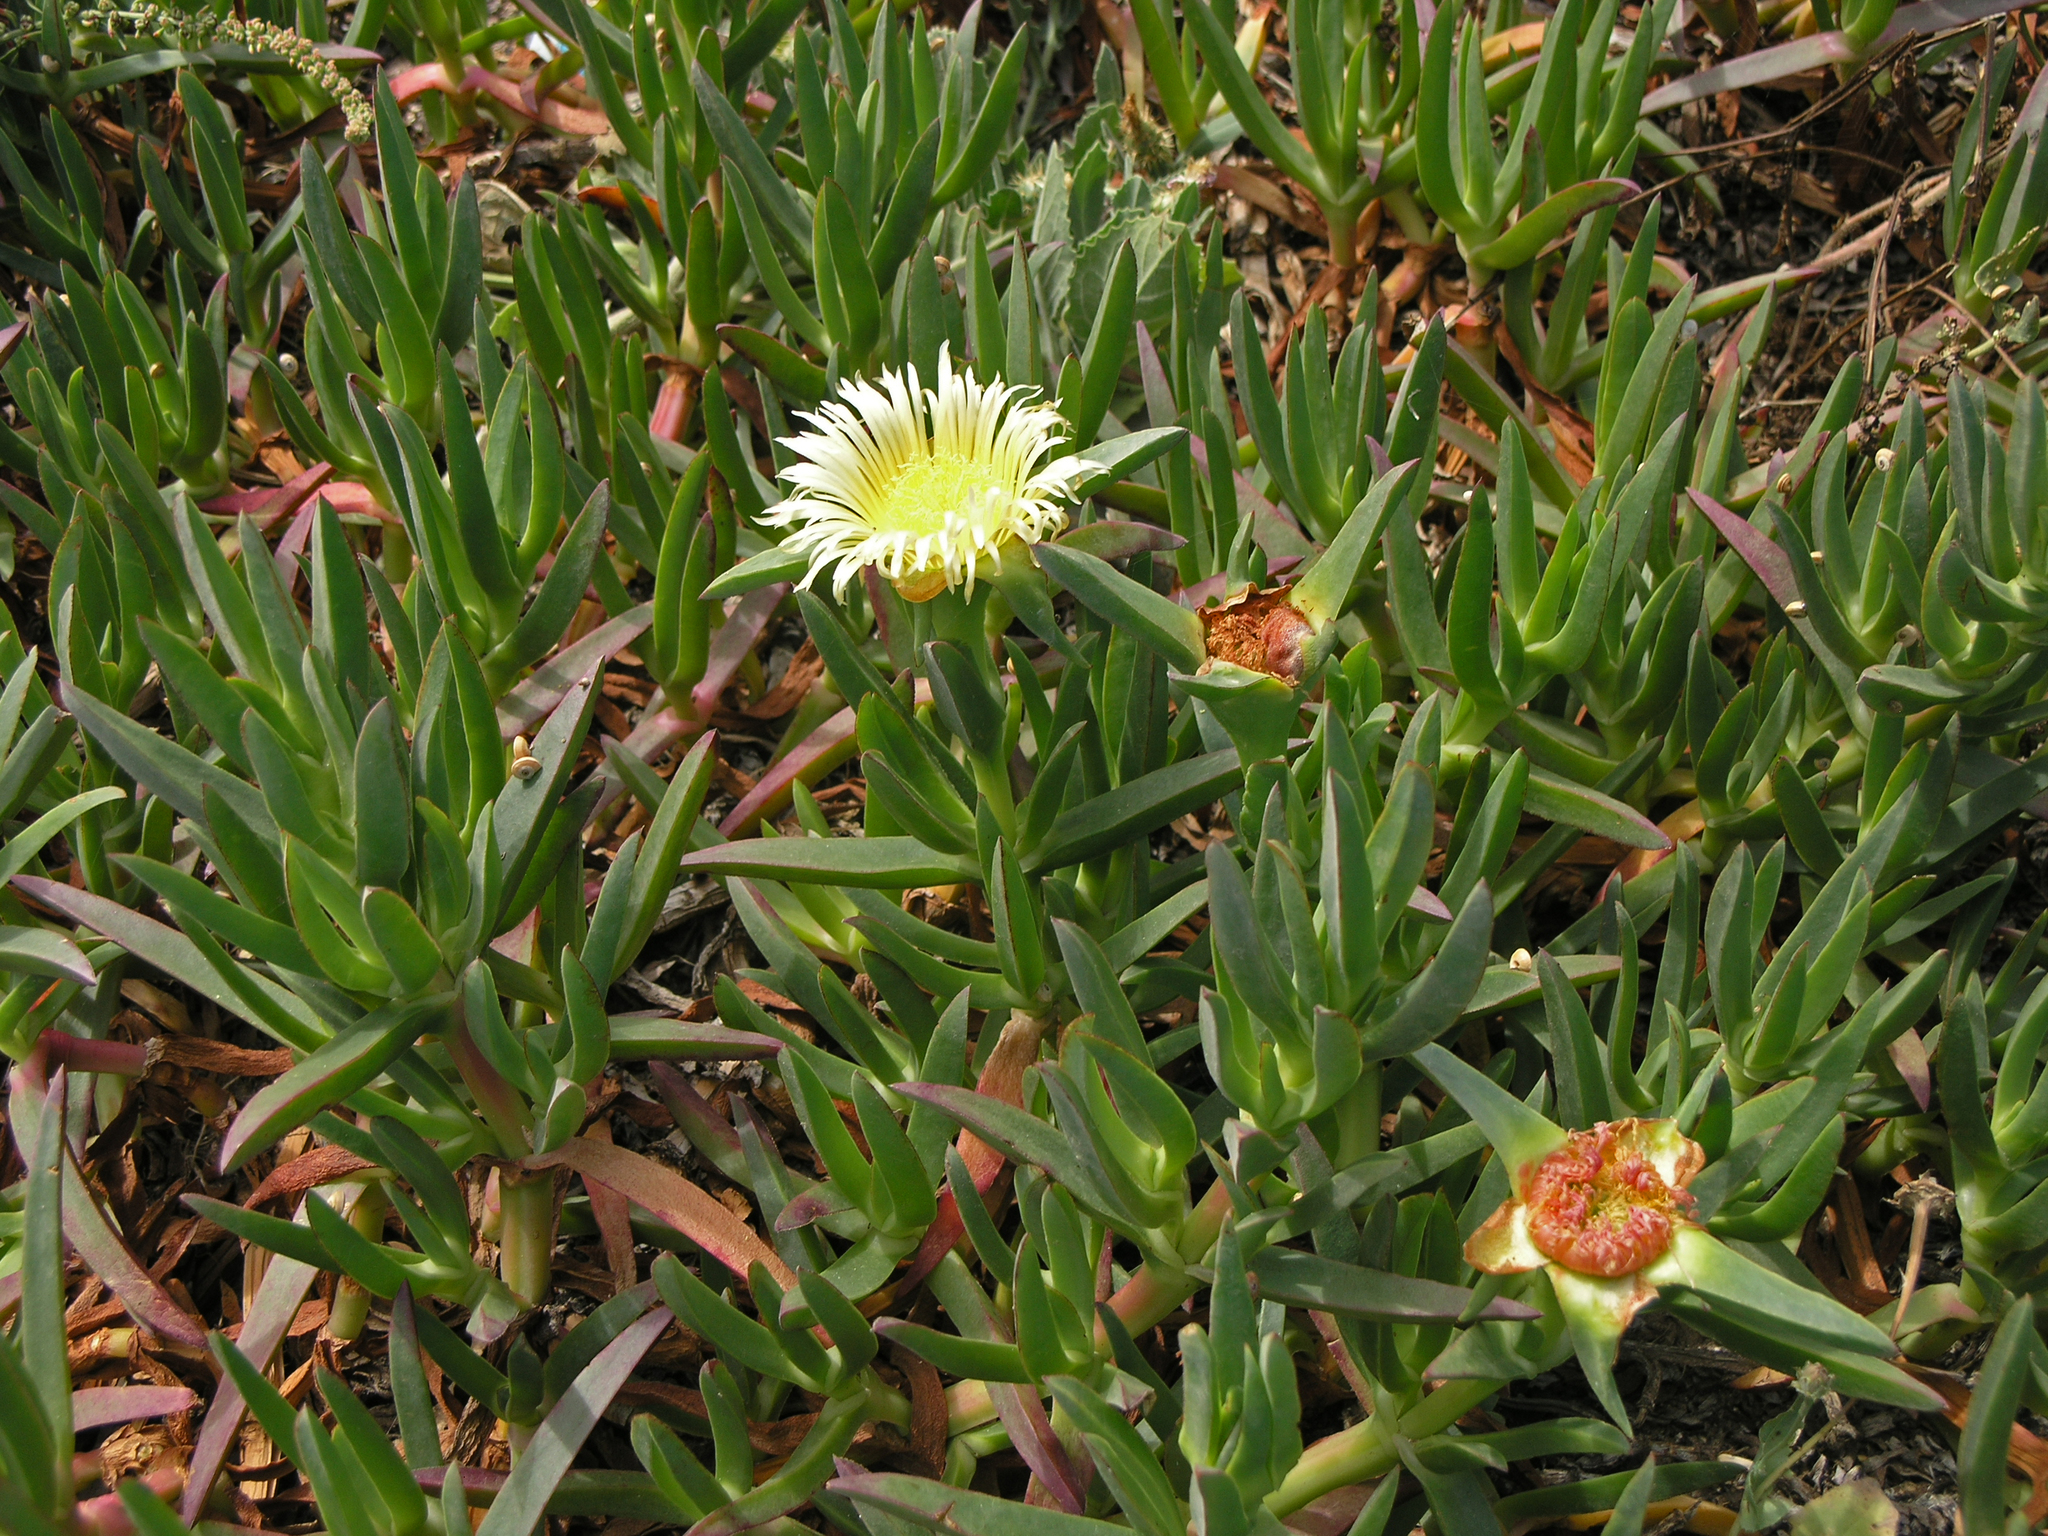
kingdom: Plantae
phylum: Tracheophyta
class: Magnoliopsida
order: Caryophyllales
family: Aizoaceae
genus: Carpobrotus
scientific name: Carpobrotus edulis
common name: Hottentot-fig
